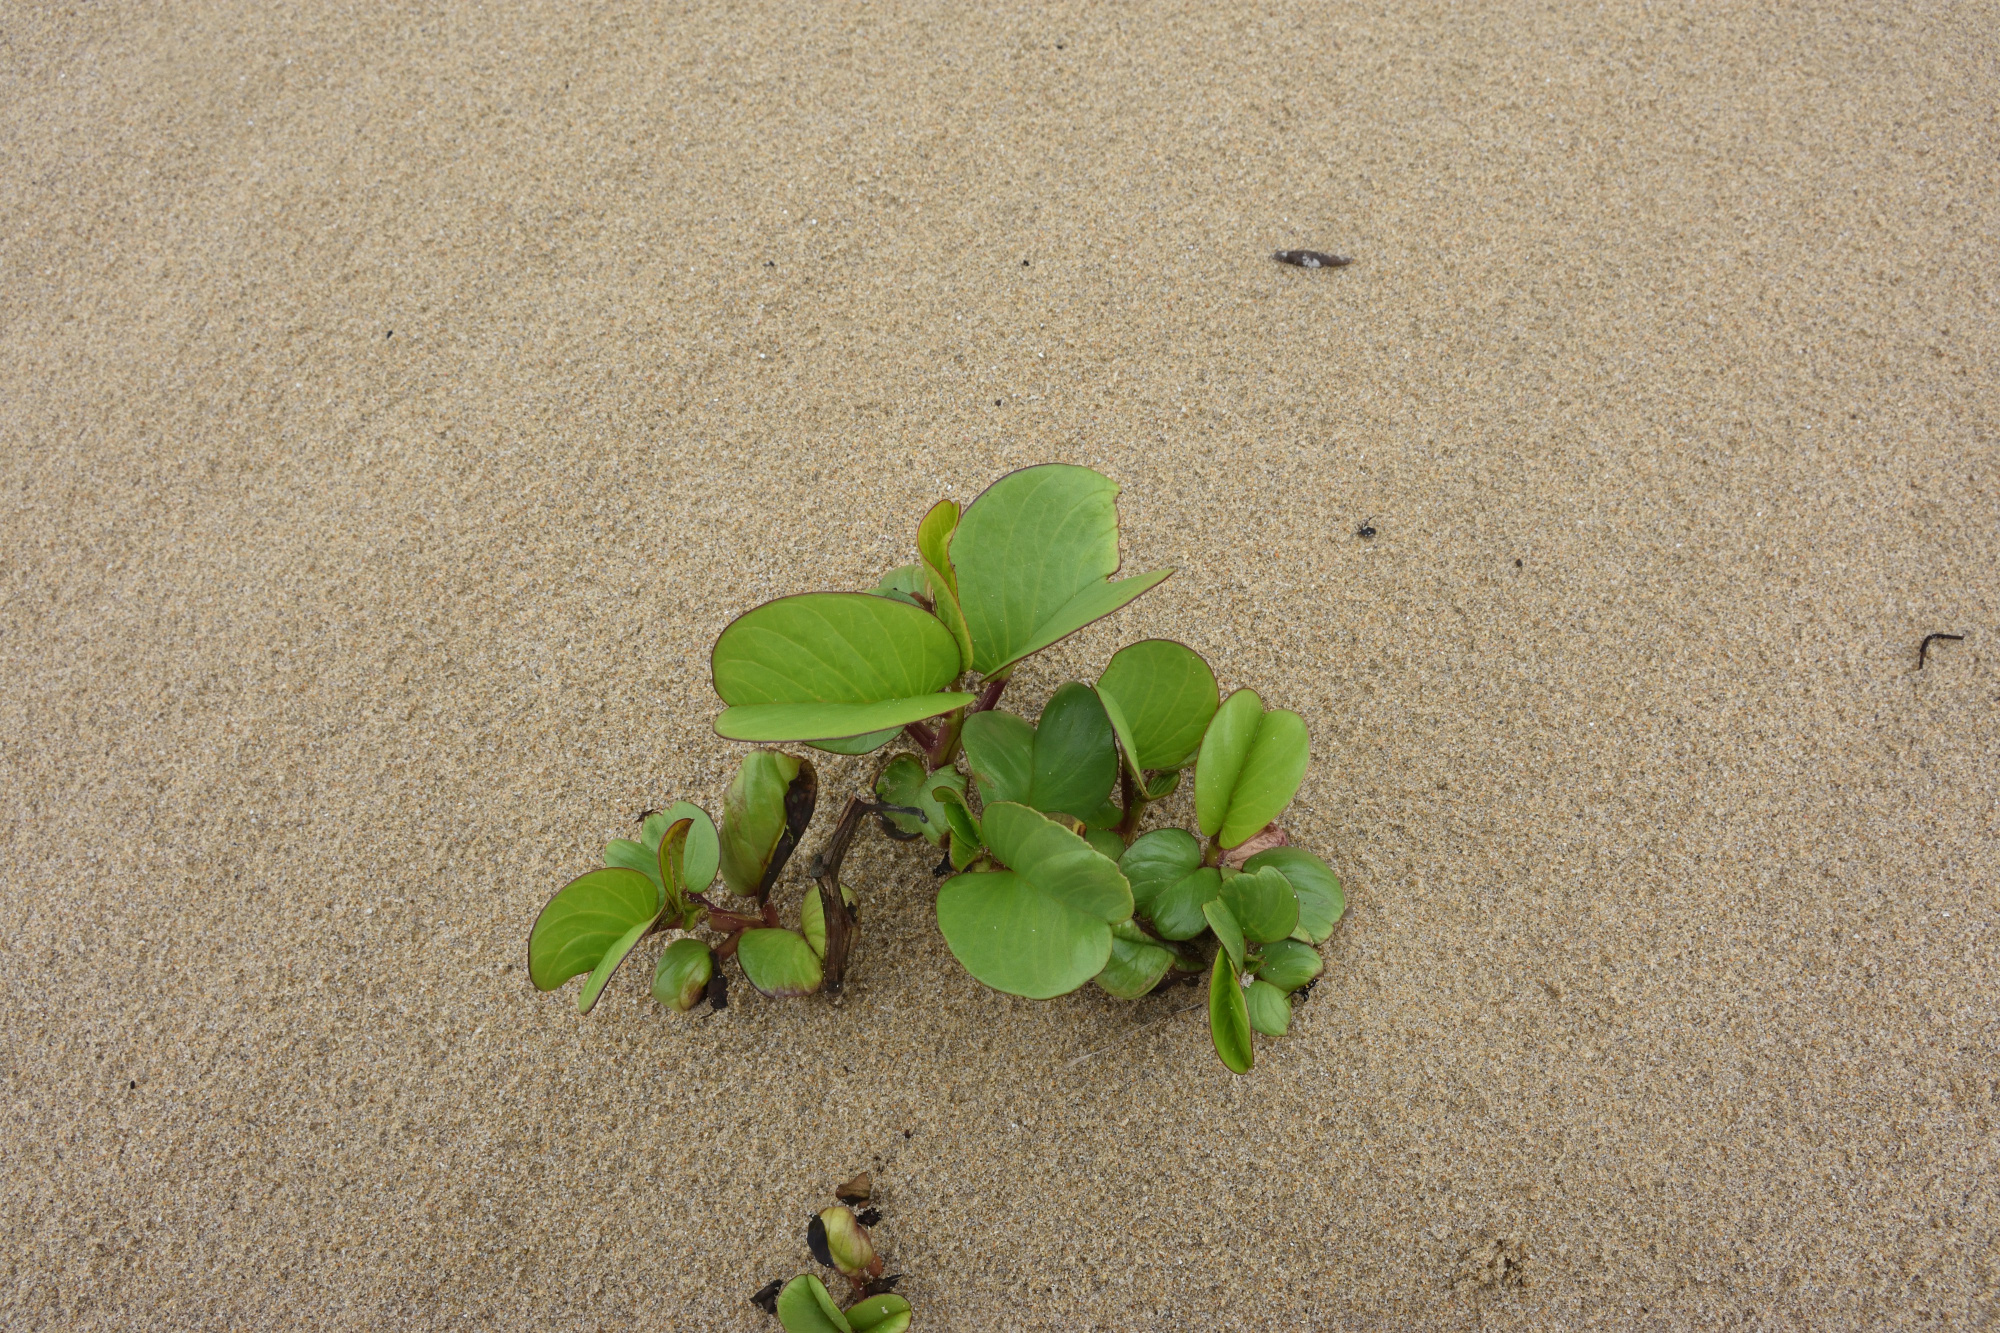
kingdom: Plantae
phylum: Tracheophyta
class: Magnoliopsida
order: Solanales
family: Convolvulaceae
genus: Ipomoea
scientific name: Ipomoea pes-caprae
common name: Beach morning glory
